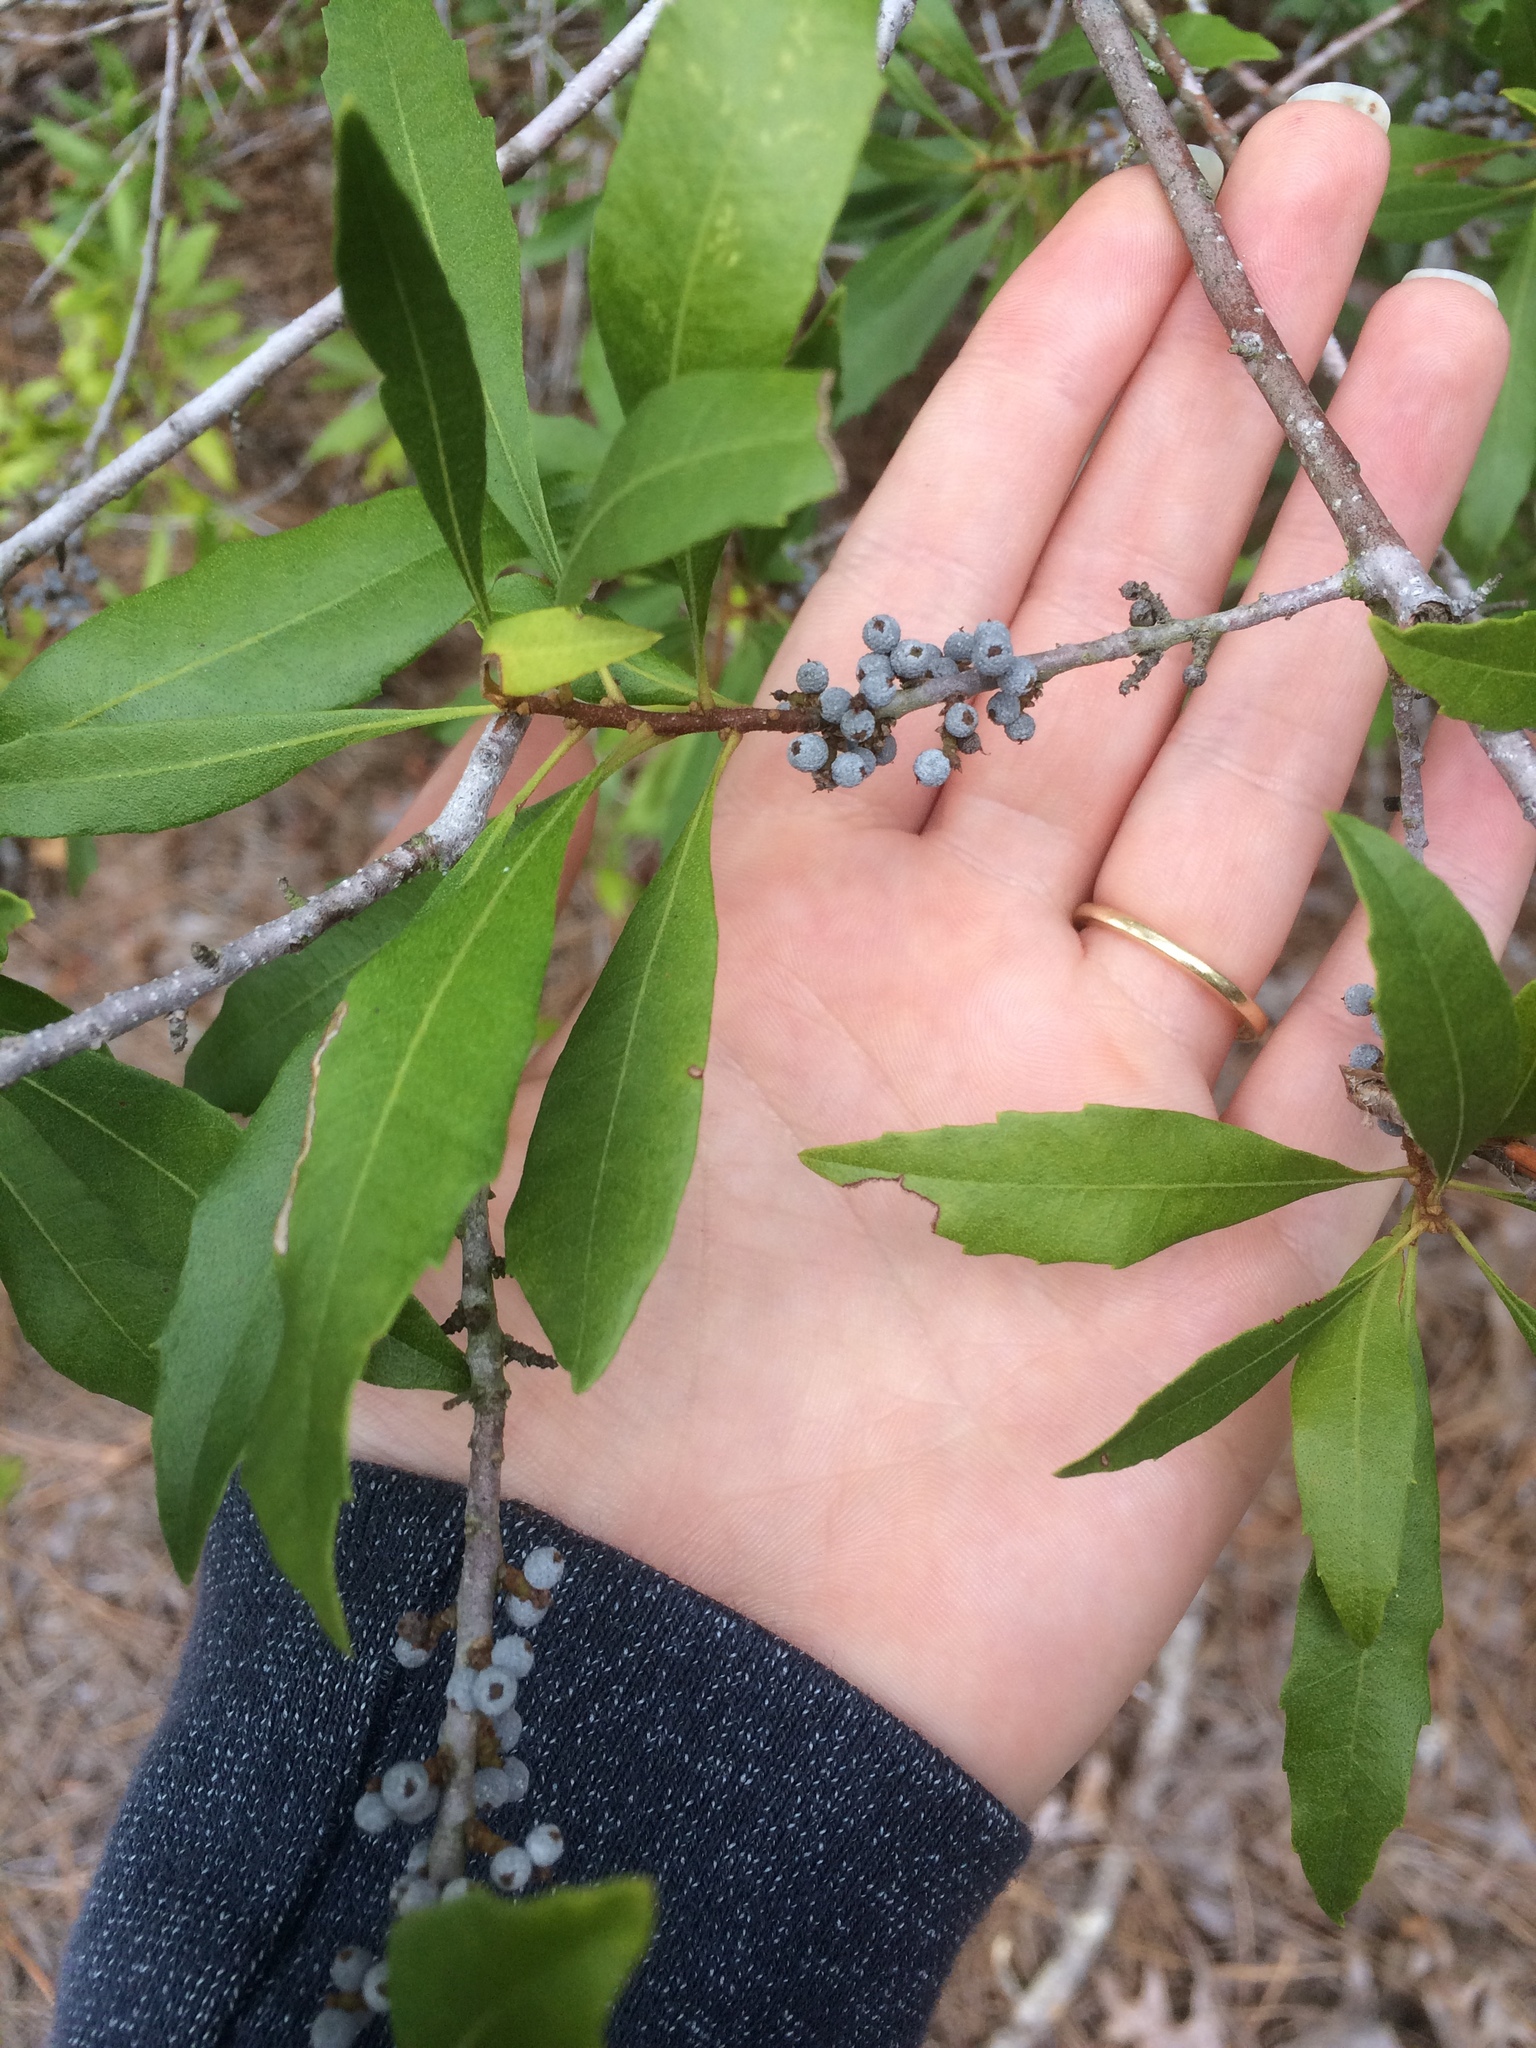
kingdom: Plantae
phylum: Tracheophyta
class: Magnoliopsida
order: Fagales
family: Myricaceae
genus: Morella
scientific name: Morella cerifera
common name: Wax myrtle
